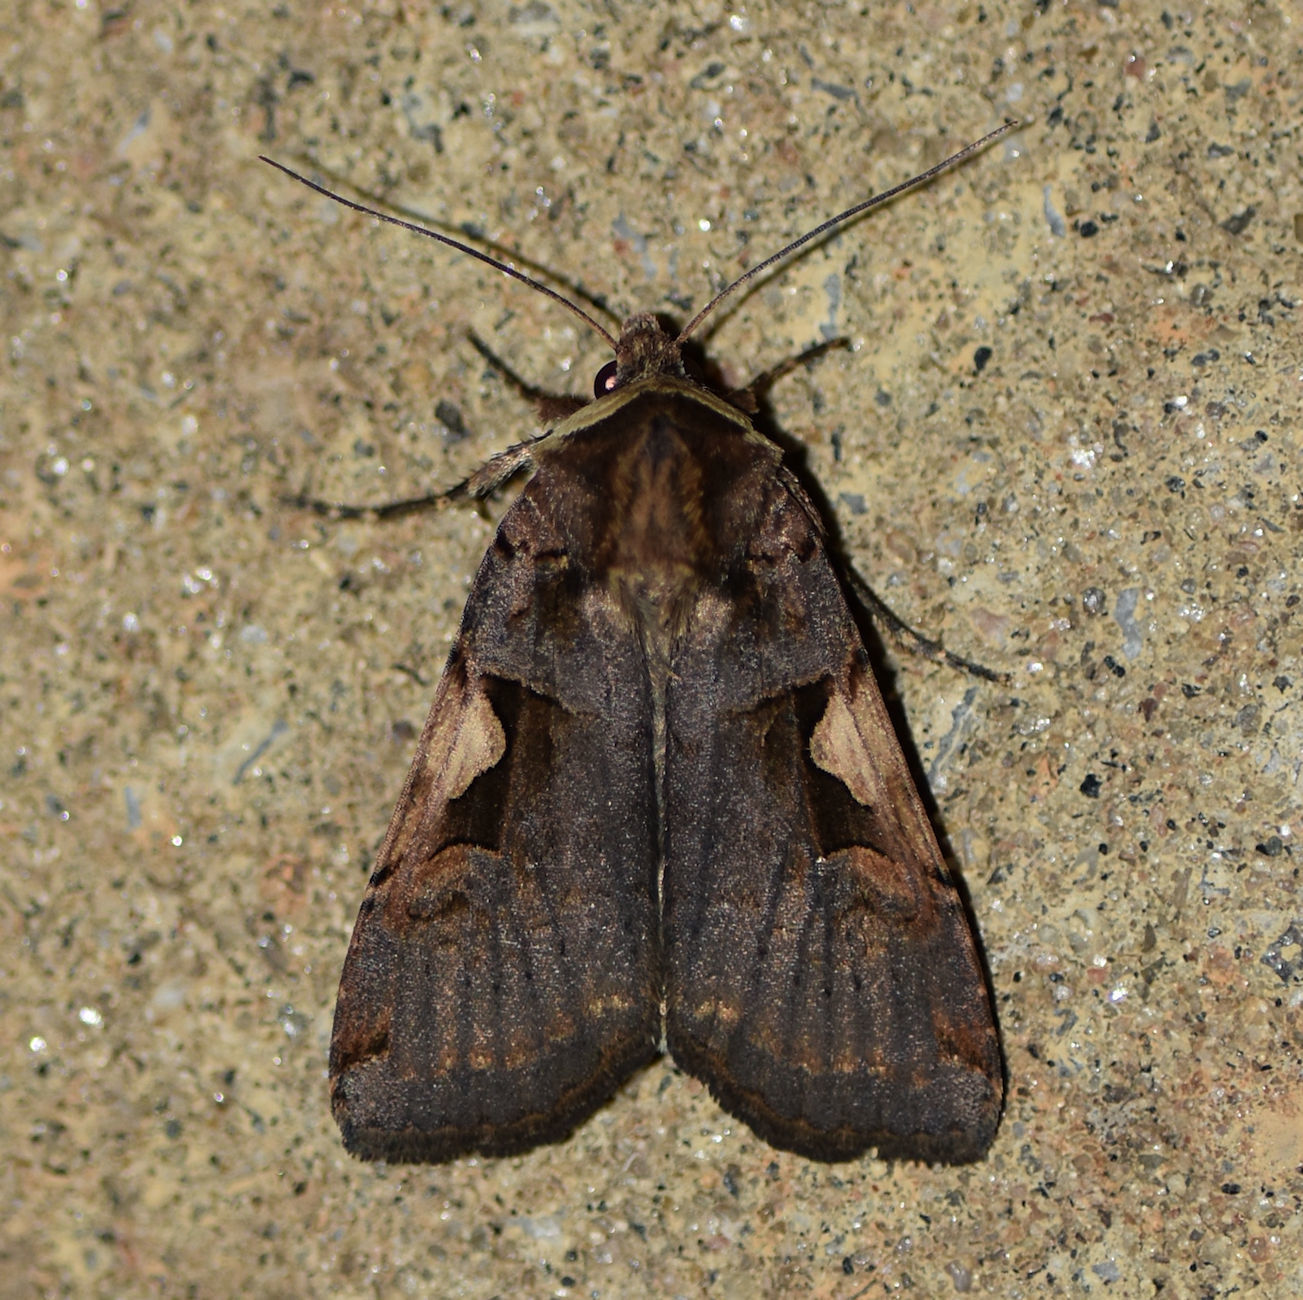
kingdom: Animalia
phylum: Arthropoda
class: Insecta
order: Lepidoptera
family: Noctuidae
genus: Xestia
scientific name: Xestia
